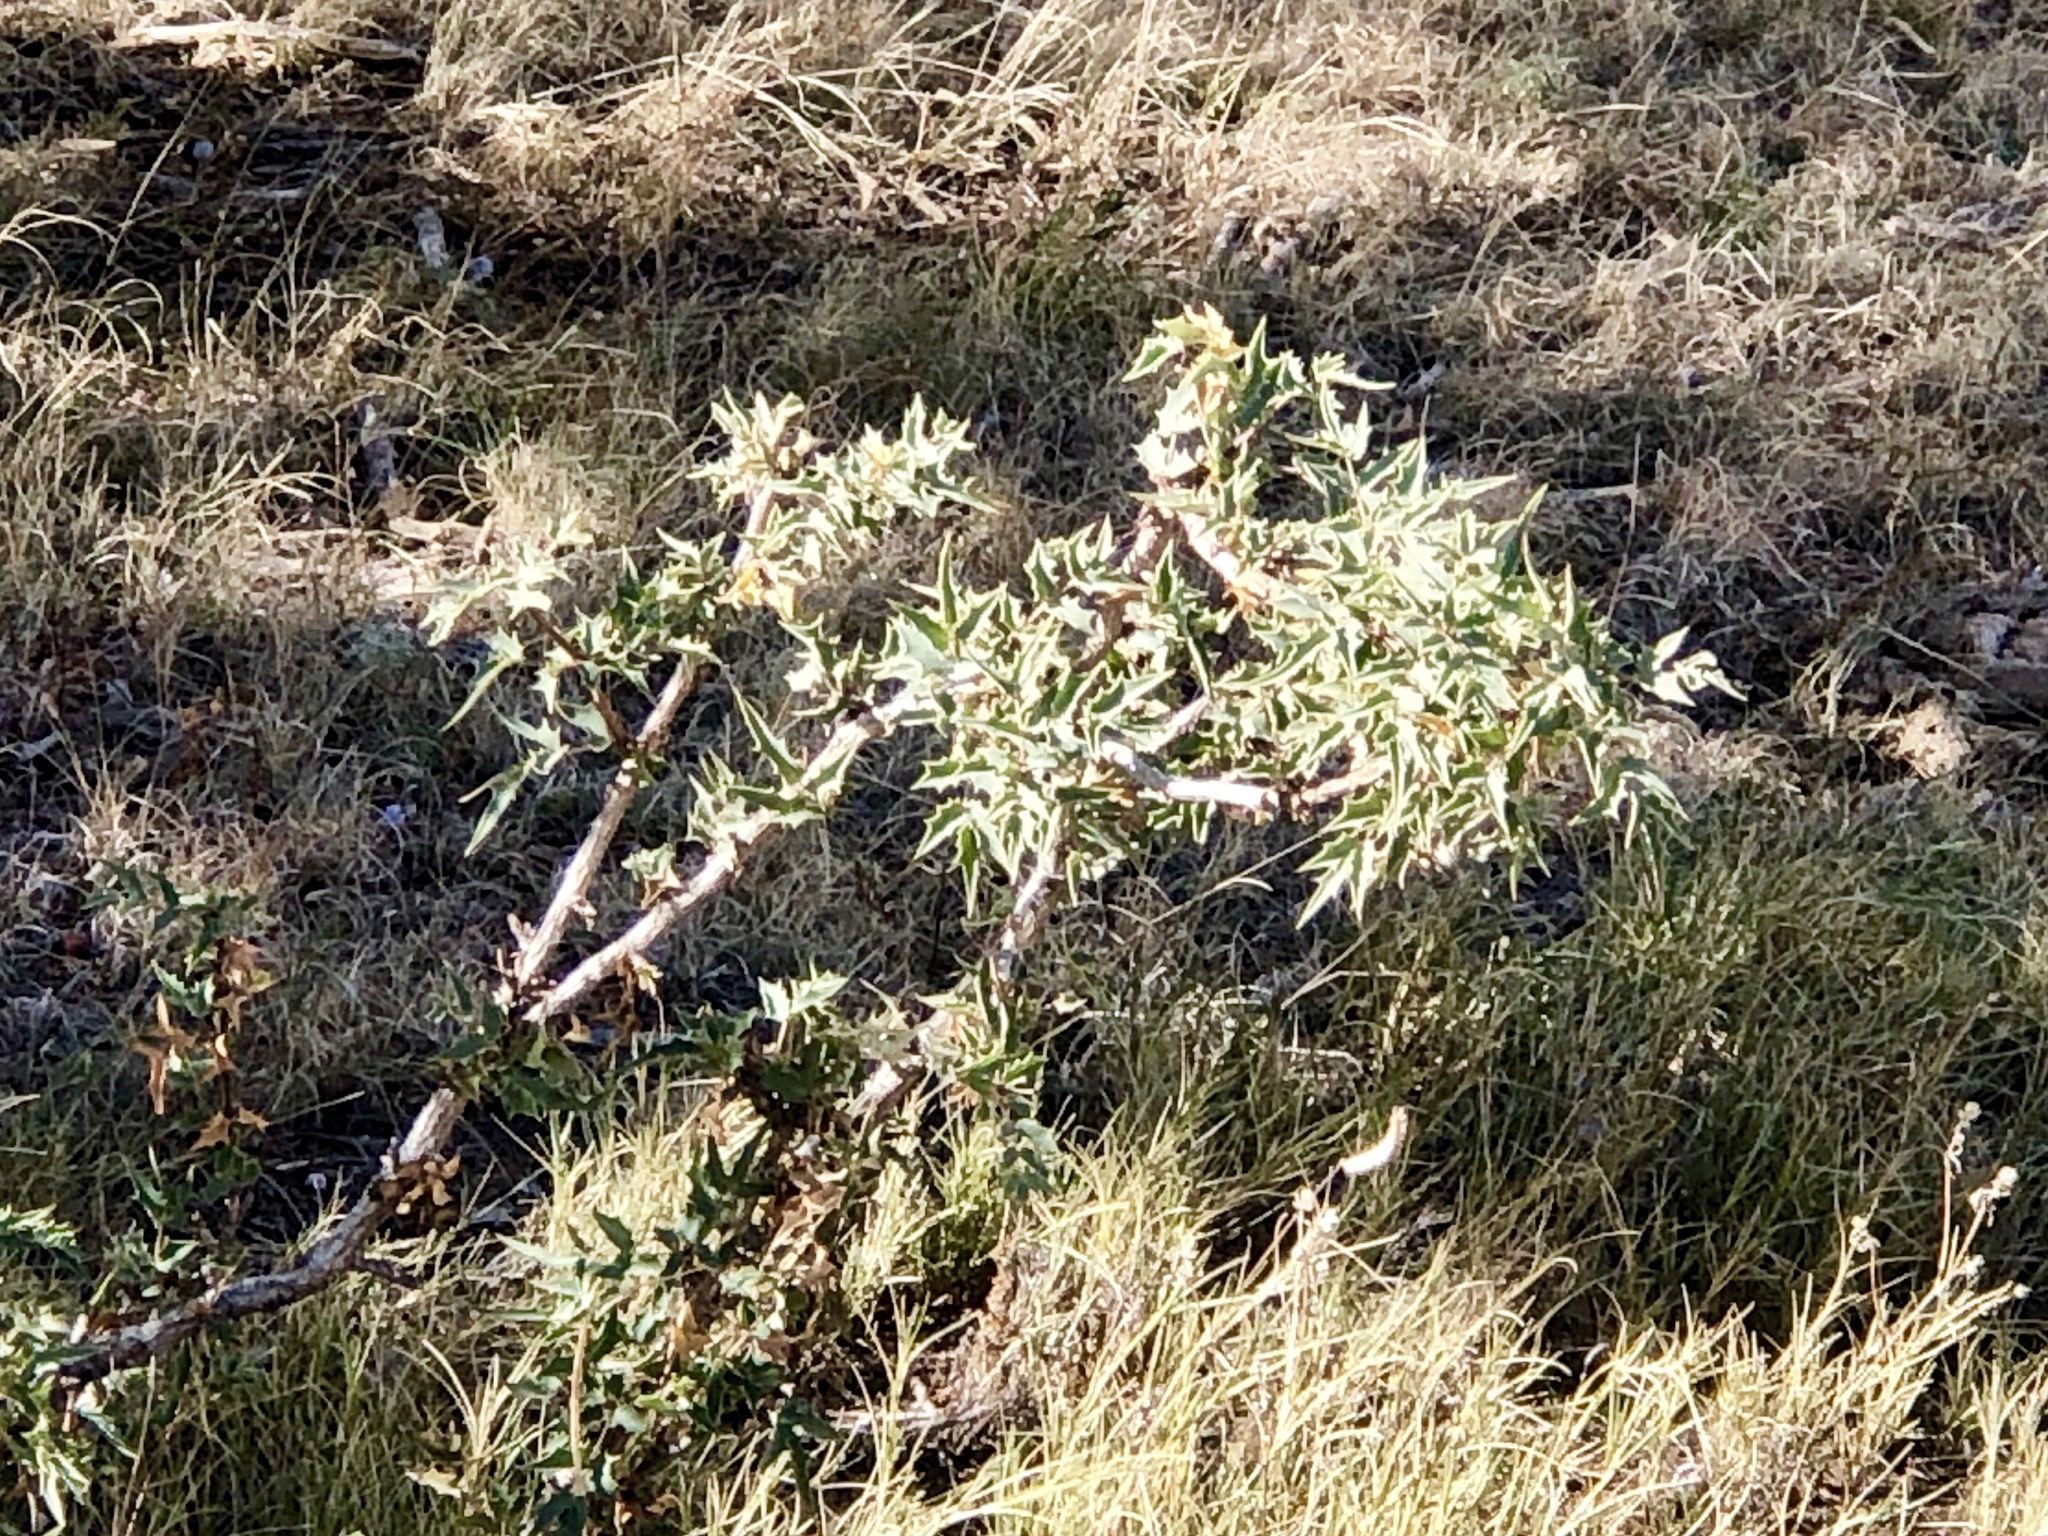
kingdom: Plantae
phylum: Tracheophyta
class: Magnoliopsida
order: Ranunculales
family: Berberidaceae
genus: Alloberberis
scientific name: Alloberberis haematocarpa
